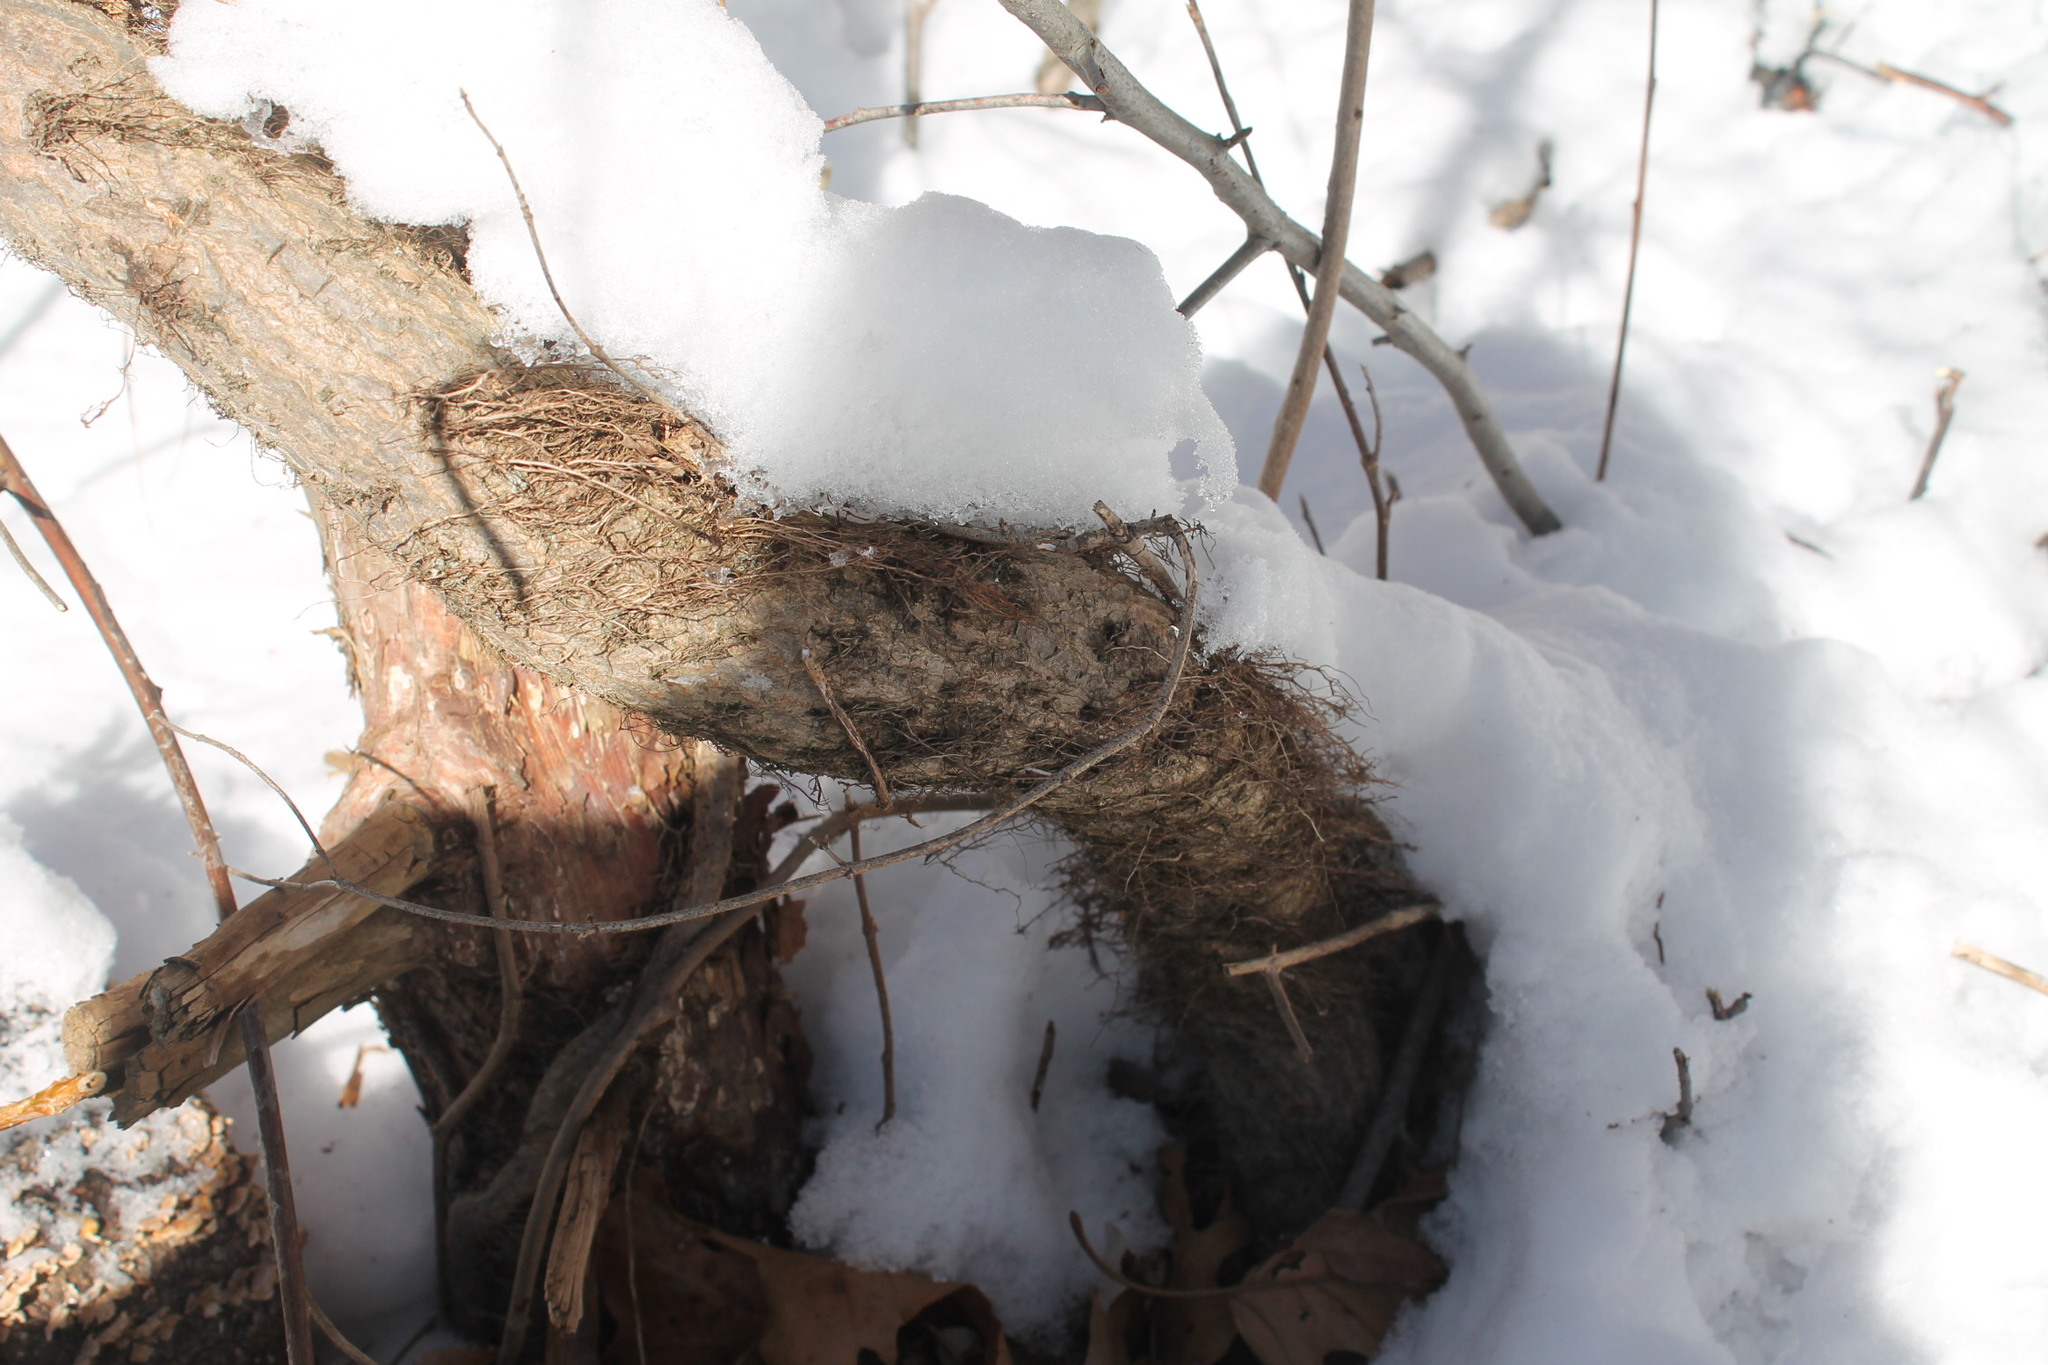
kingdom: Plantae
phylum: Tracheophyta
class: Magnoliopsida
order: Sapindales
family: Anacardiaceae
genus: Toxicodendron
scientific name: Toxicodendron radicans
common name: Poison ivy
